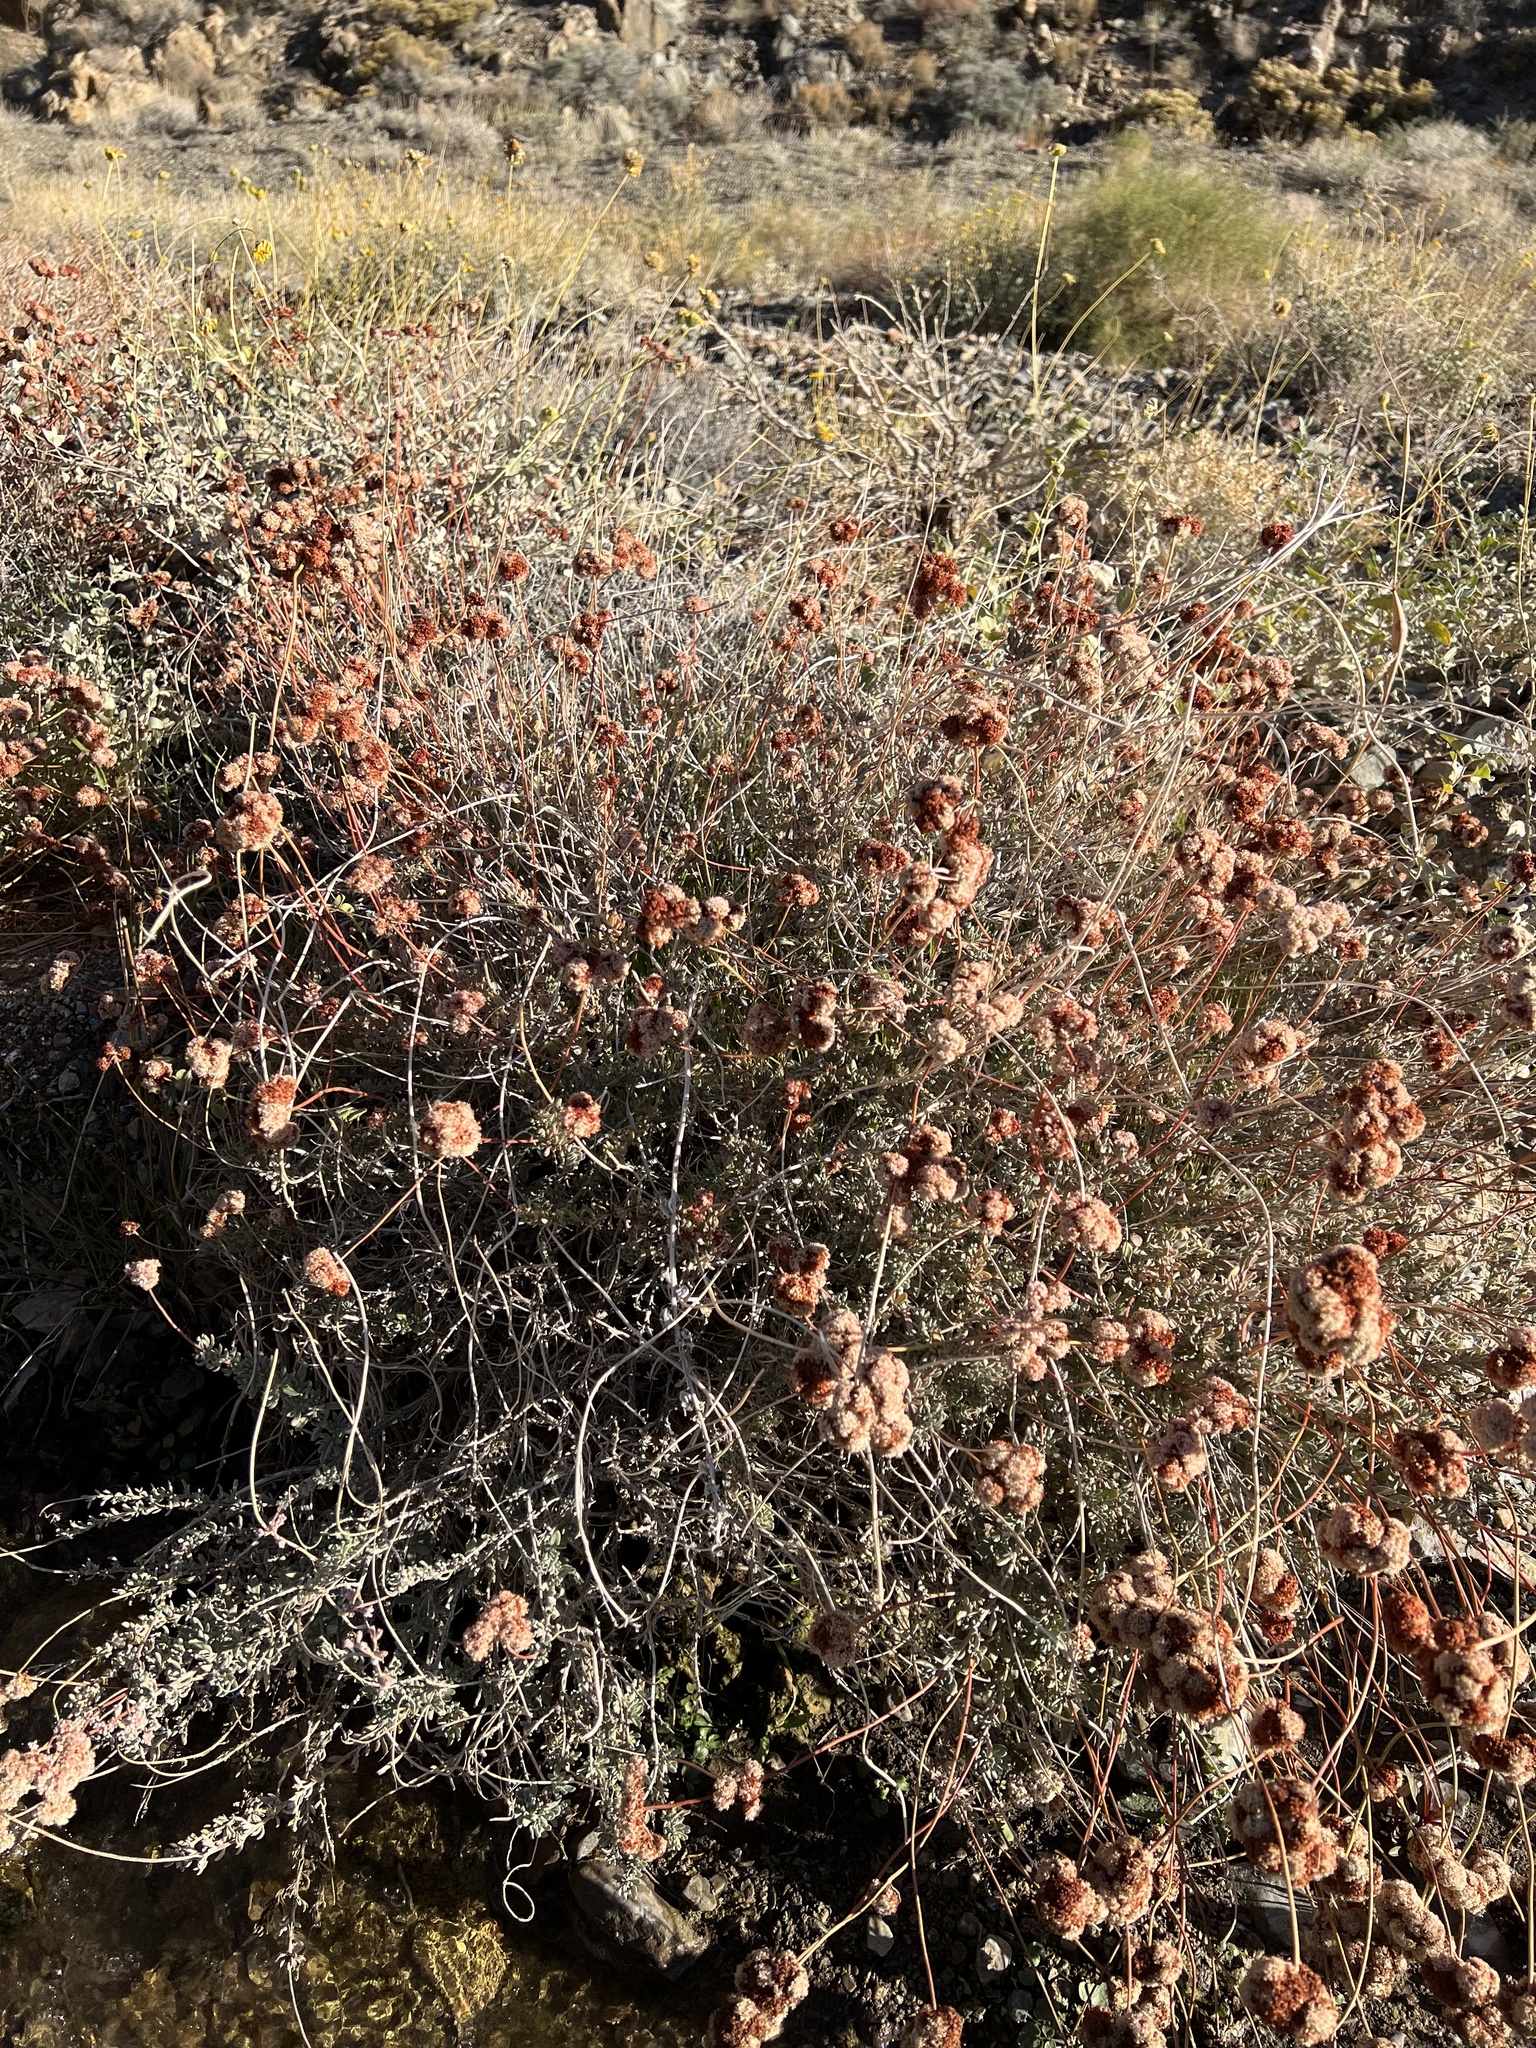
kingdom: Plantae
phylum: Tracheophyta
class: Magnoliopsida
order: Caryophyllales
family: Polygonaceae
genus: Eriogonum
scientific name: Eriogonum fasciculatum
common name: California wild buckwheat
